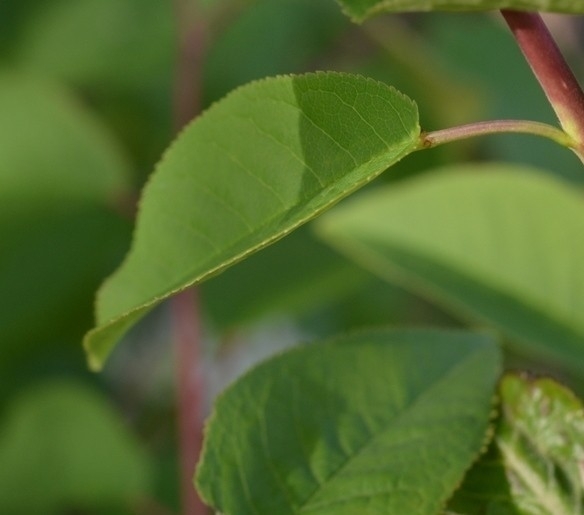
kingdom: Plantae
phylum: Tracheophyta
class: Magnoliopsida
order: Rosales
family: Rosaceae
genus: Prunus
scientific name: Prunus padus
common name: Bird cherry
